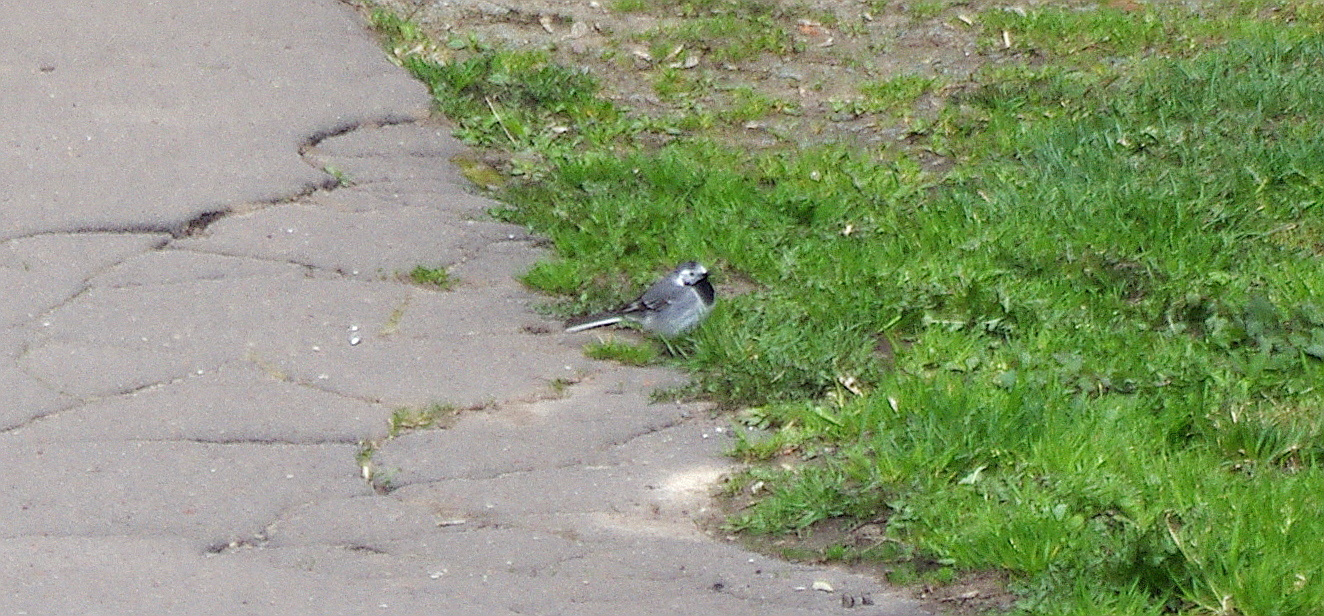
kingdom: Animalia
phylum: Chordata
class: Aves
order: Passeriformes
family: Motacillidae
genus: Motacilla
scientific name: Motacilla alba
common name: White wagtail
